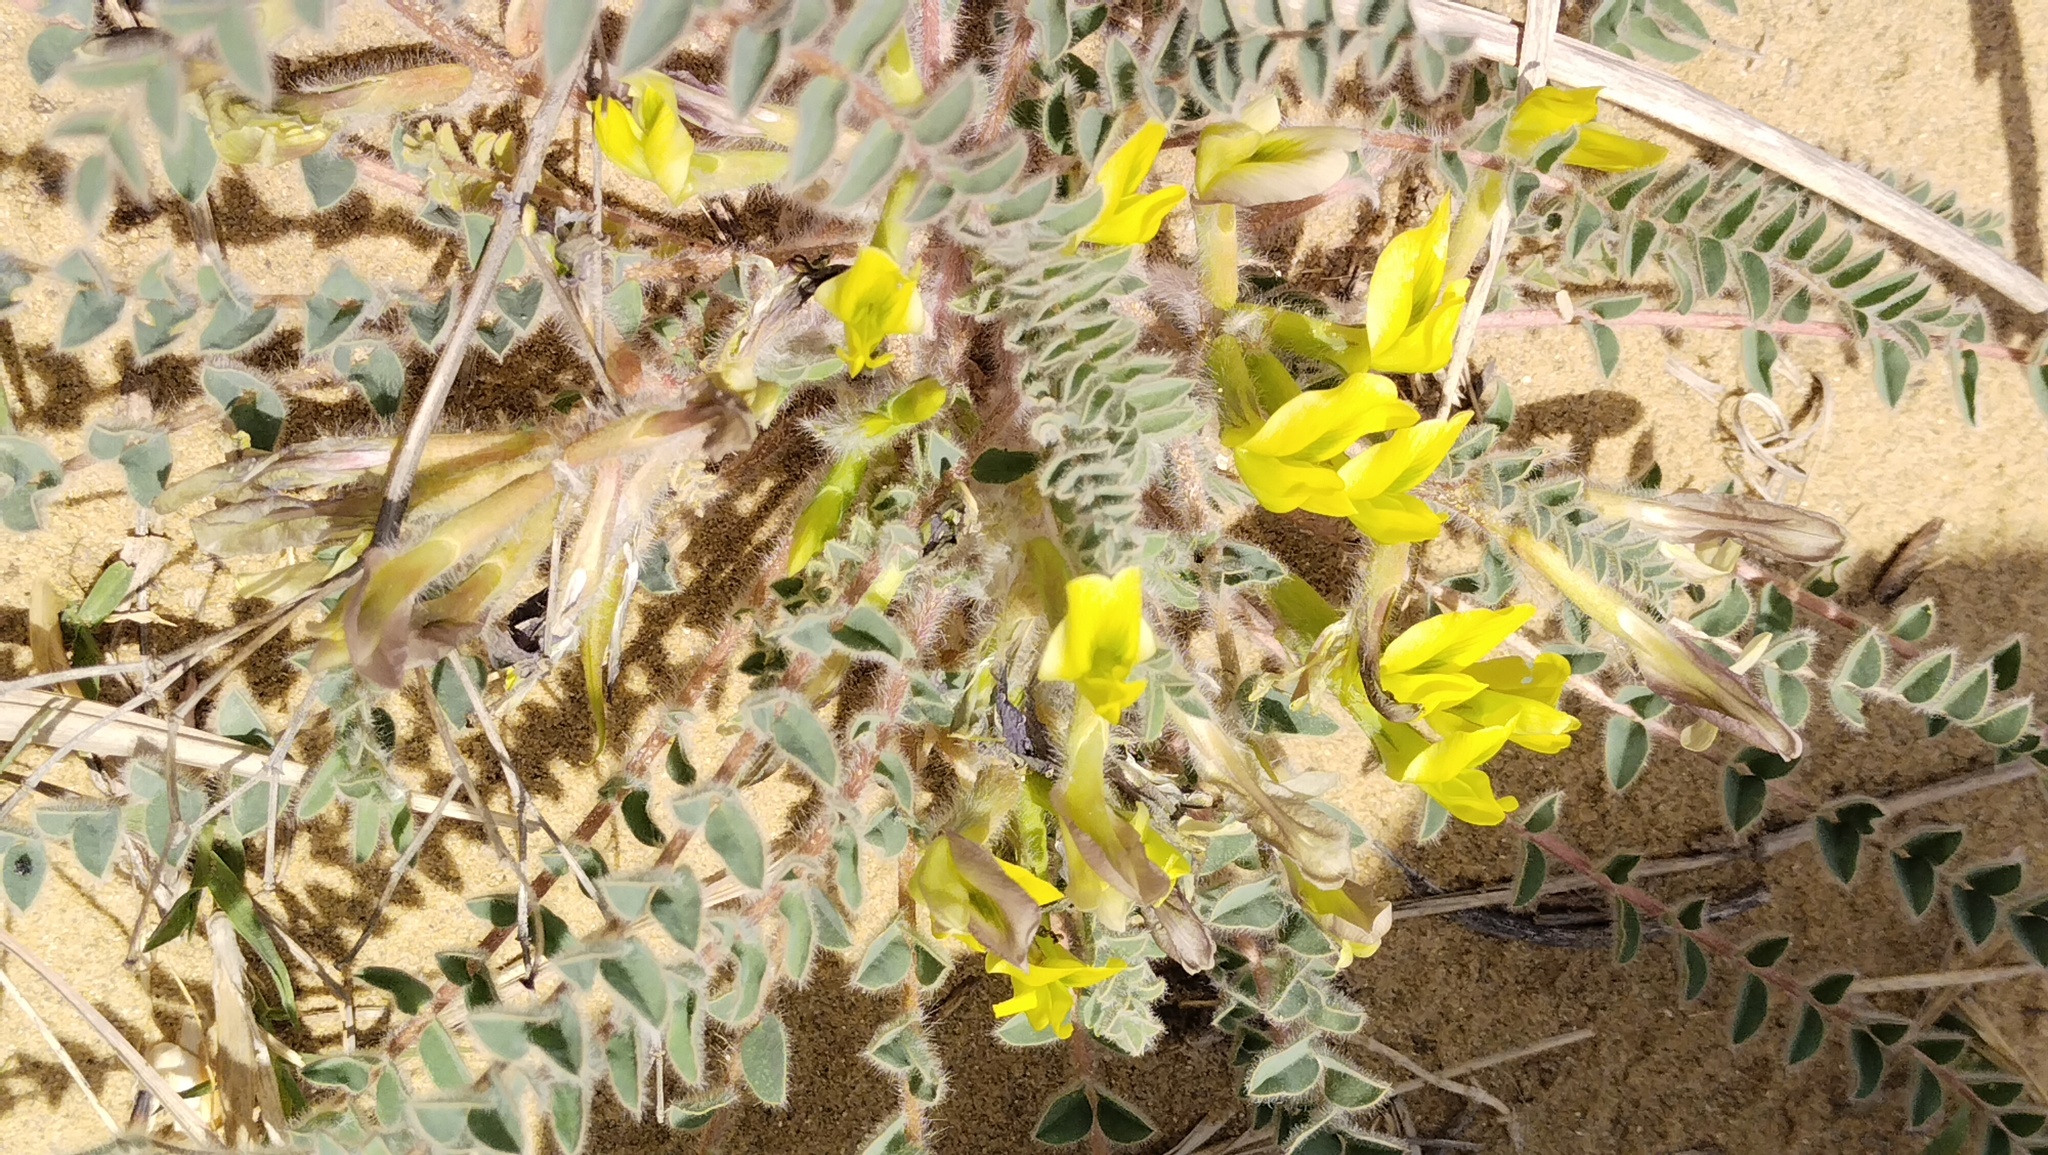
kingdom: Plantae
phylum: Tracheophyta
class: Magnoliopsida
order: Fabales
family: Fabaceae
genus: Astragalus
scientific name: Astragalus longipetalus
